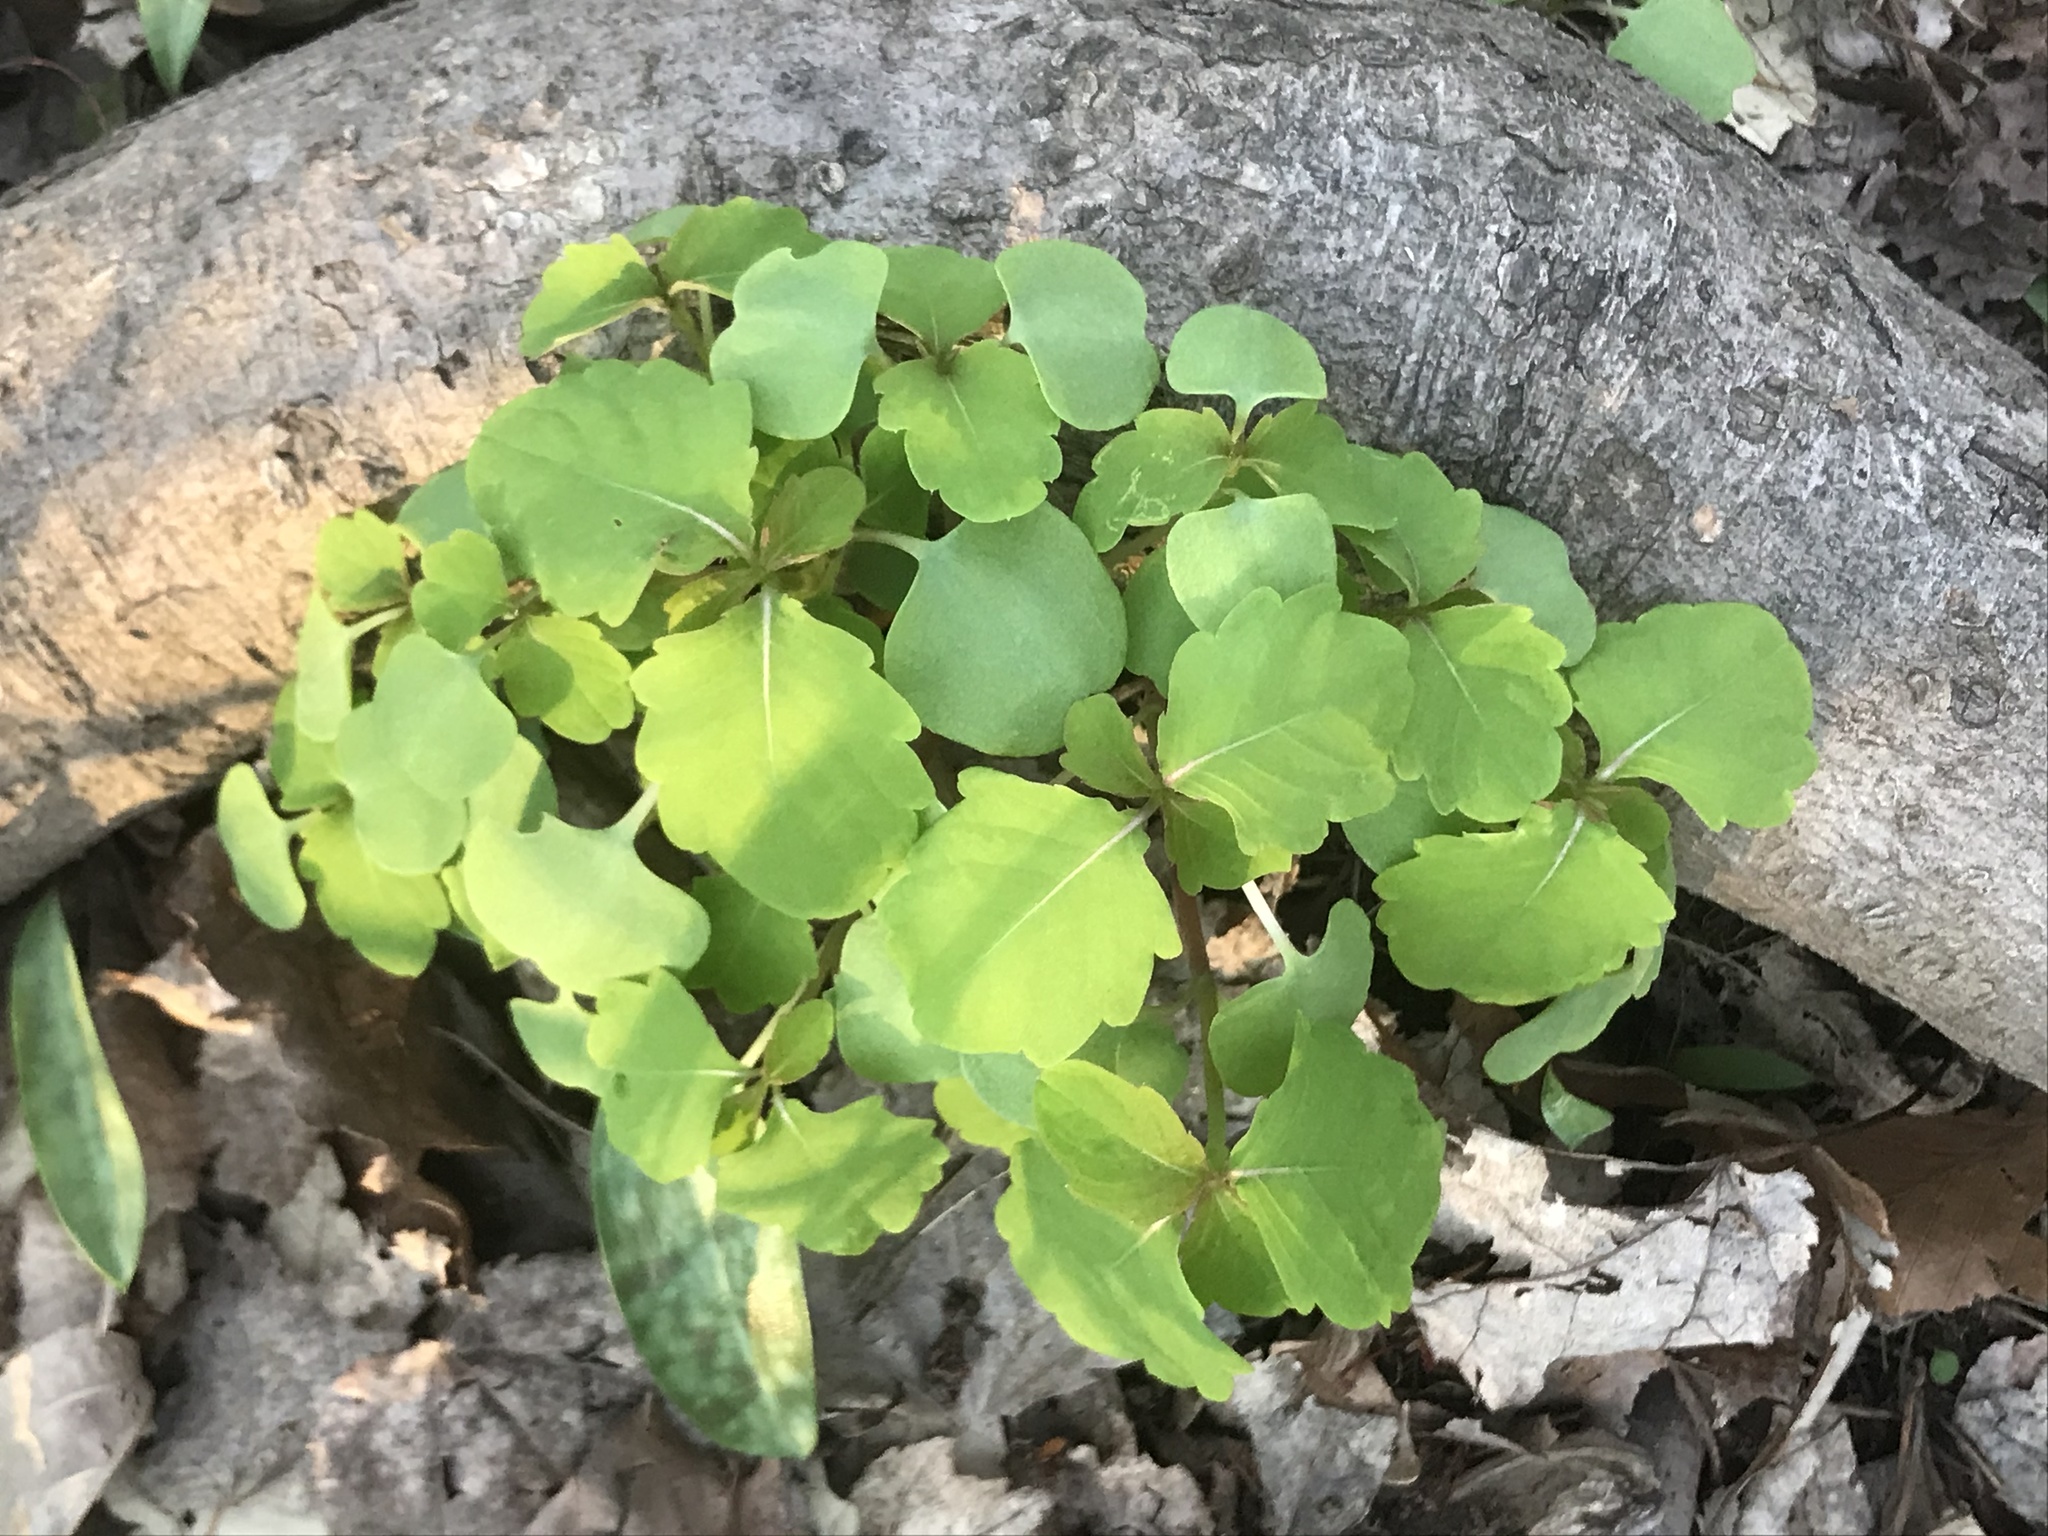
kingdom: Plantae
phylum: Tracheophyta
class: Magnoliopsida
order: Ericales
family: Balsaminaceae
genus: Impatiens
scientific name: Impatiens capensis
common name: Orange balsam
